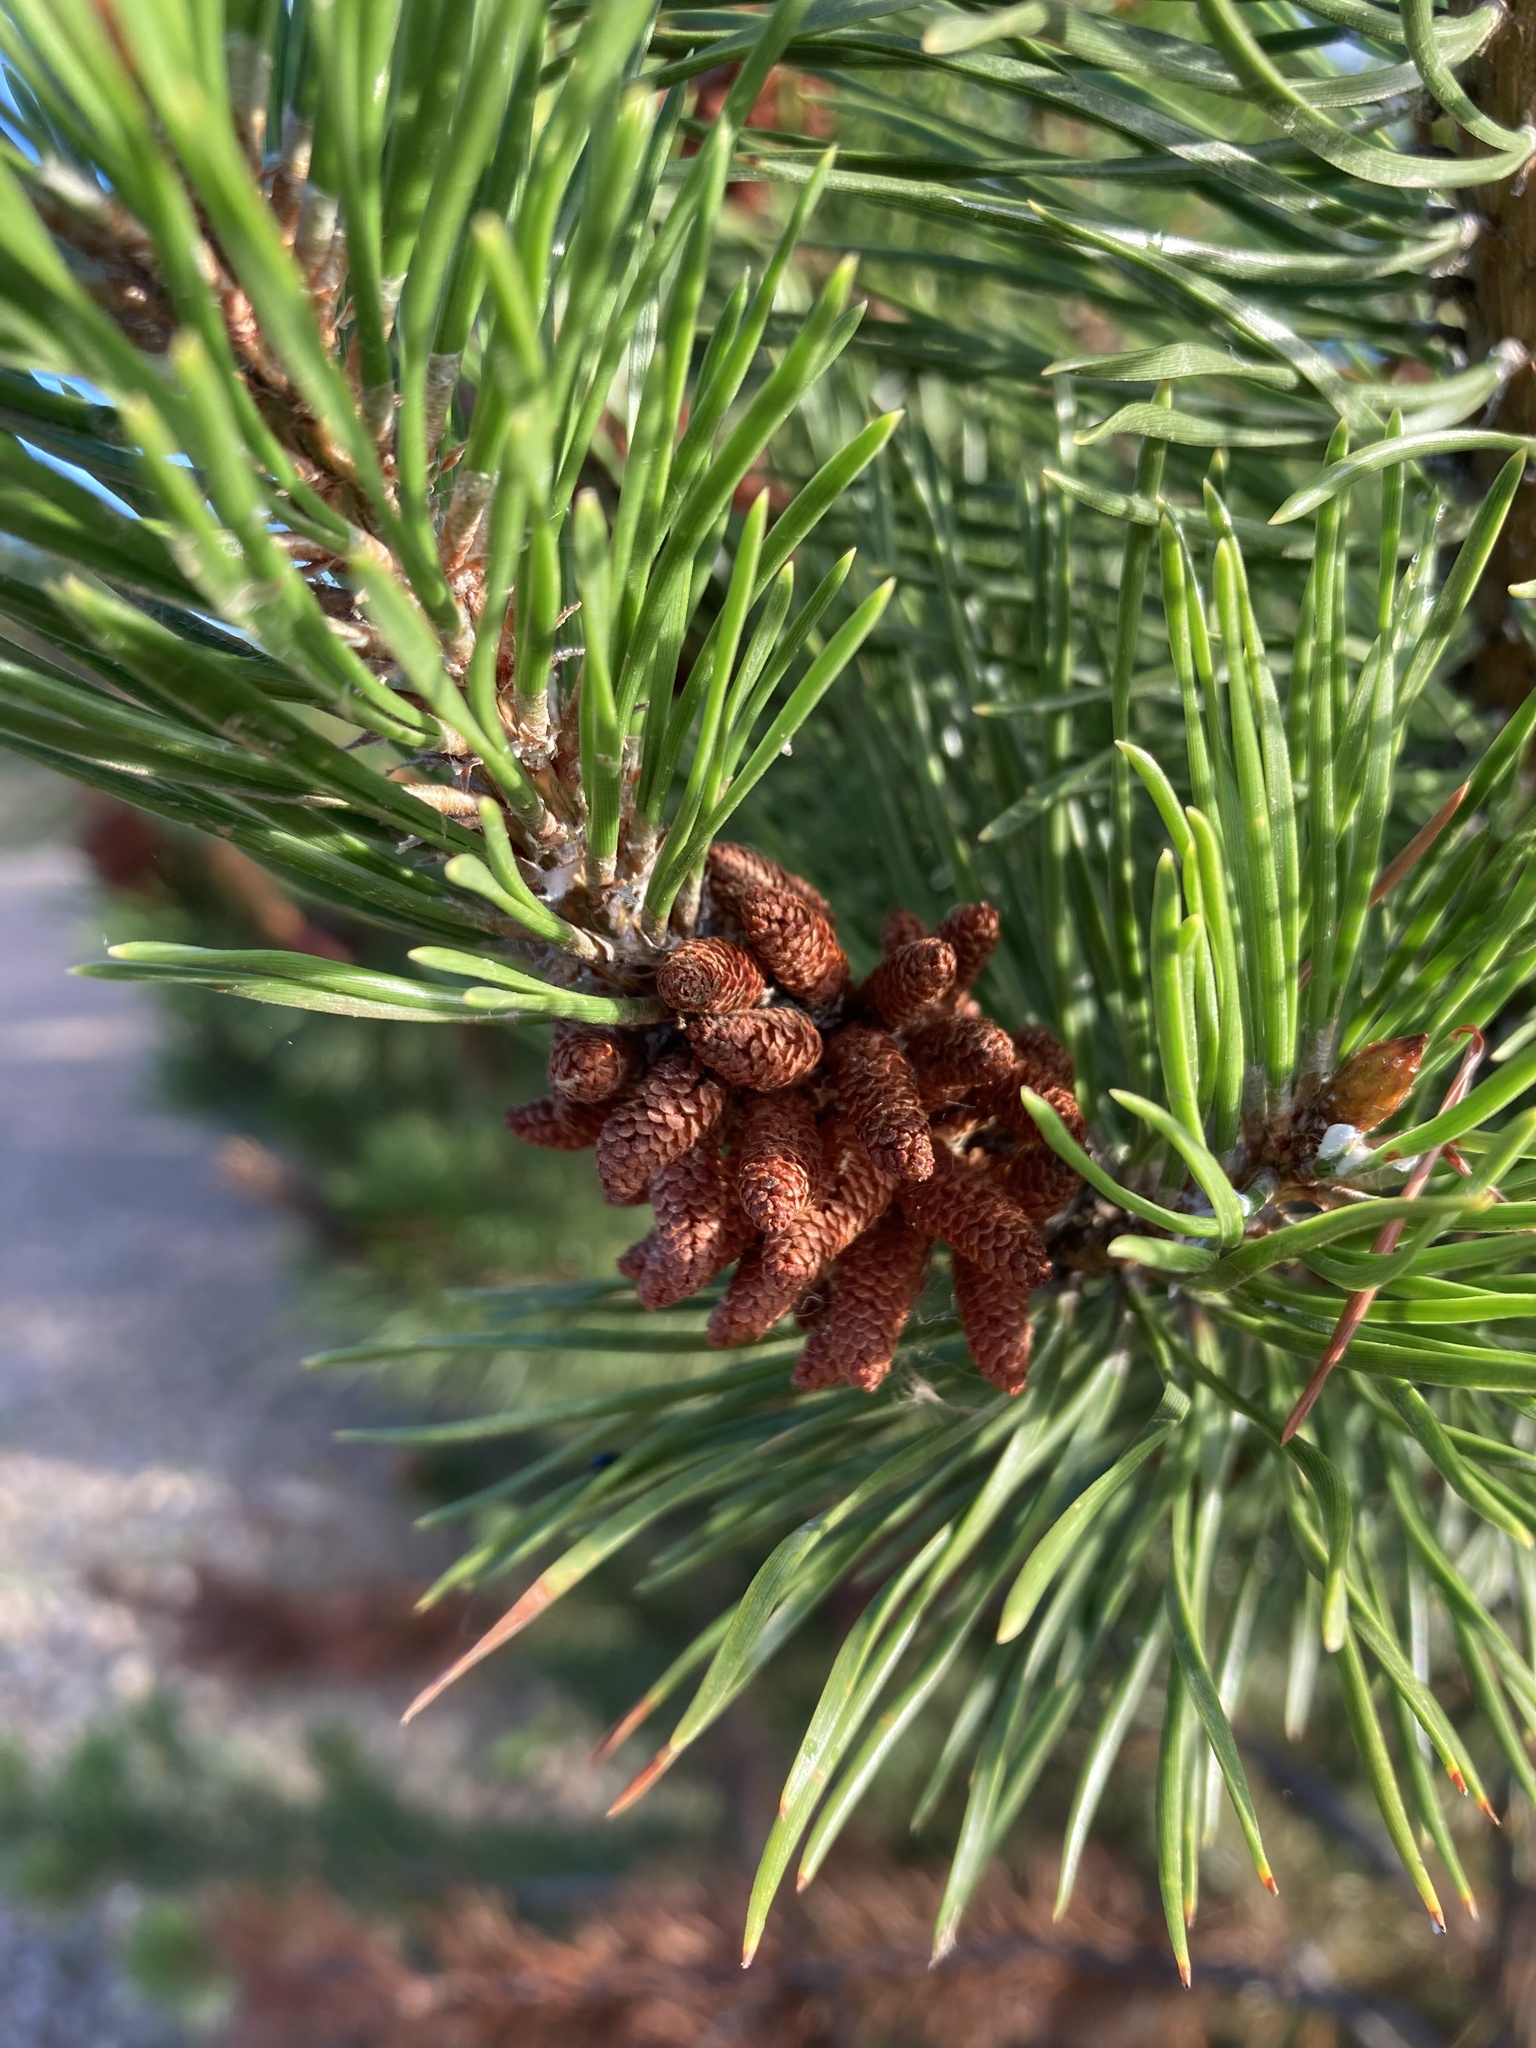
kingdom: Plantae
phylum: Tracheophyta
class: Pinopsida
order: Pinales
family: Pinaceae
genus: Pinus
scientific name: Pinus contorta
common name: Lodgepole pine
